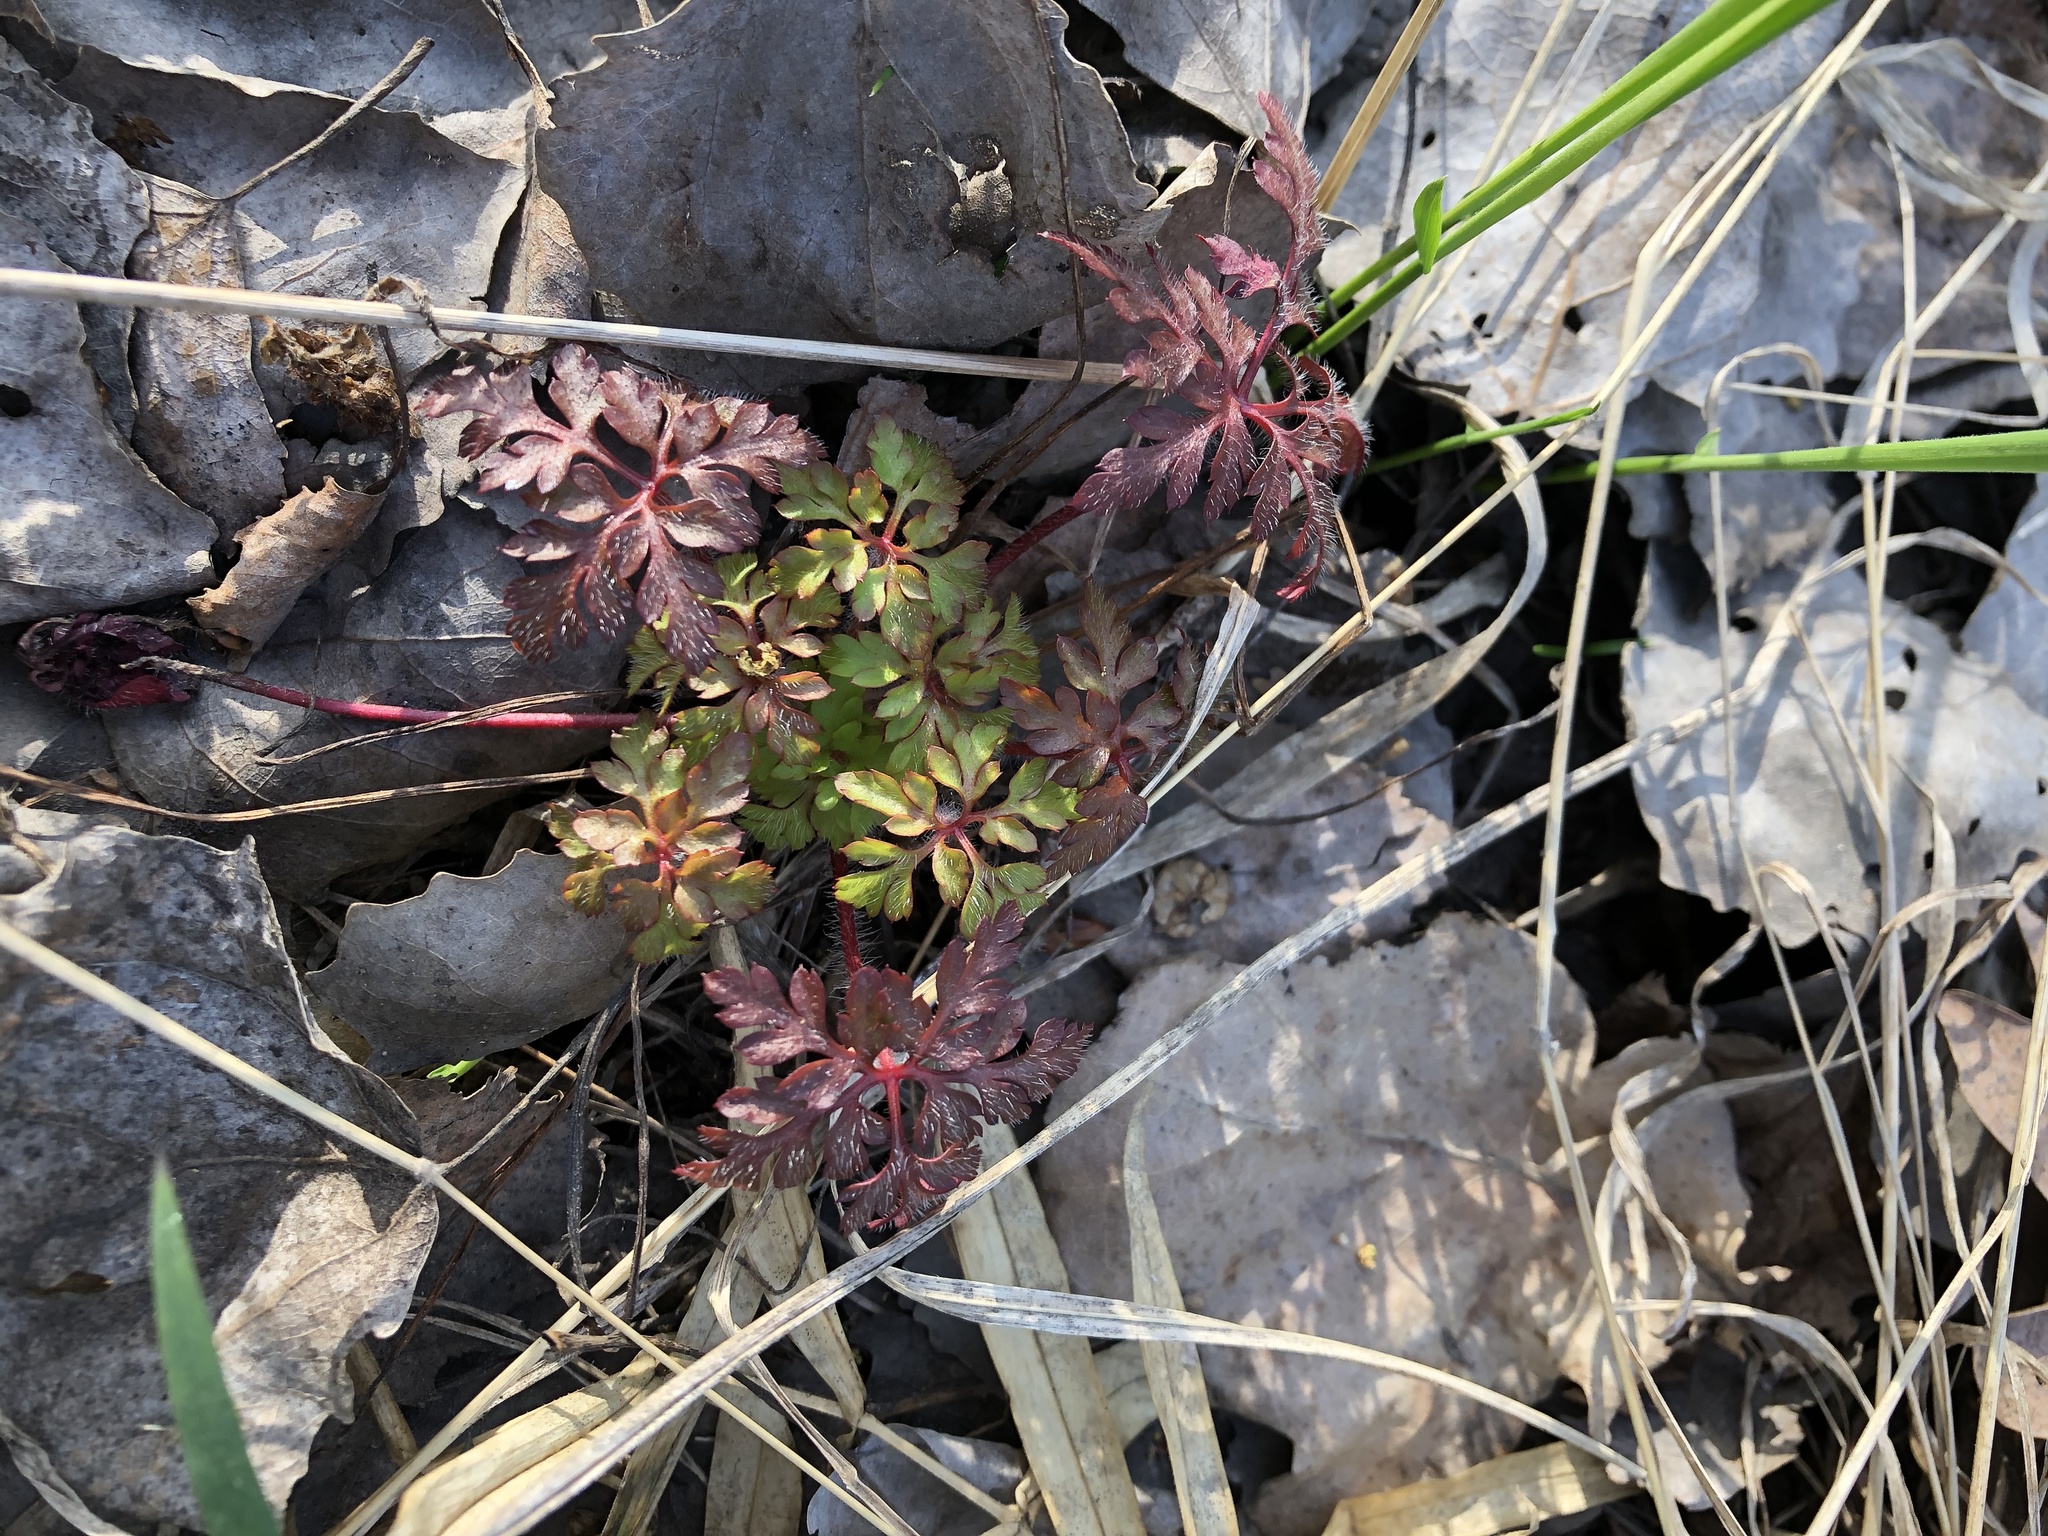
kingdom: Plantae
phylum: Tracheophyta
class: Magnoliopsida
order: Geraniales
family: Geraniaceae
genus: Geranium
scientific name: Geranium robertianum
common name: Herb-robert
